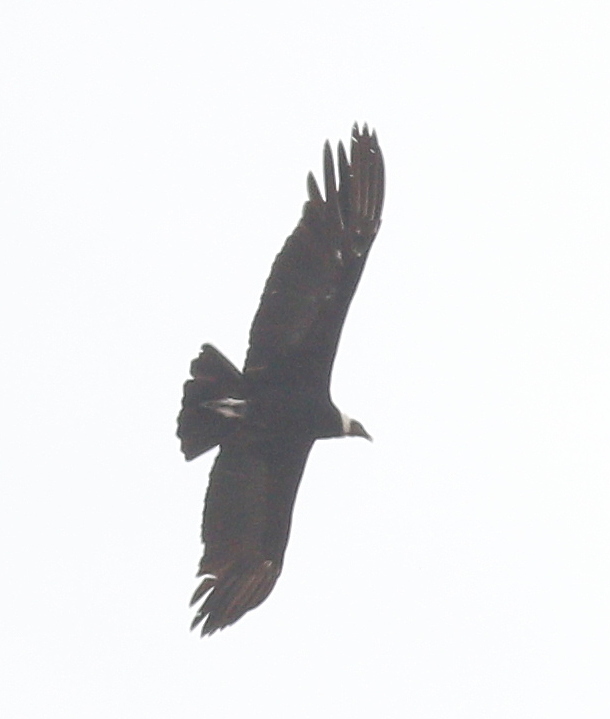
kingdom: Animalia
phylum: Chordata
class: Aves
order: Accipitriformes
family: Cathartidae
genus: Vultur
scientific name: Vultur gryphus
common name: Andean condor
